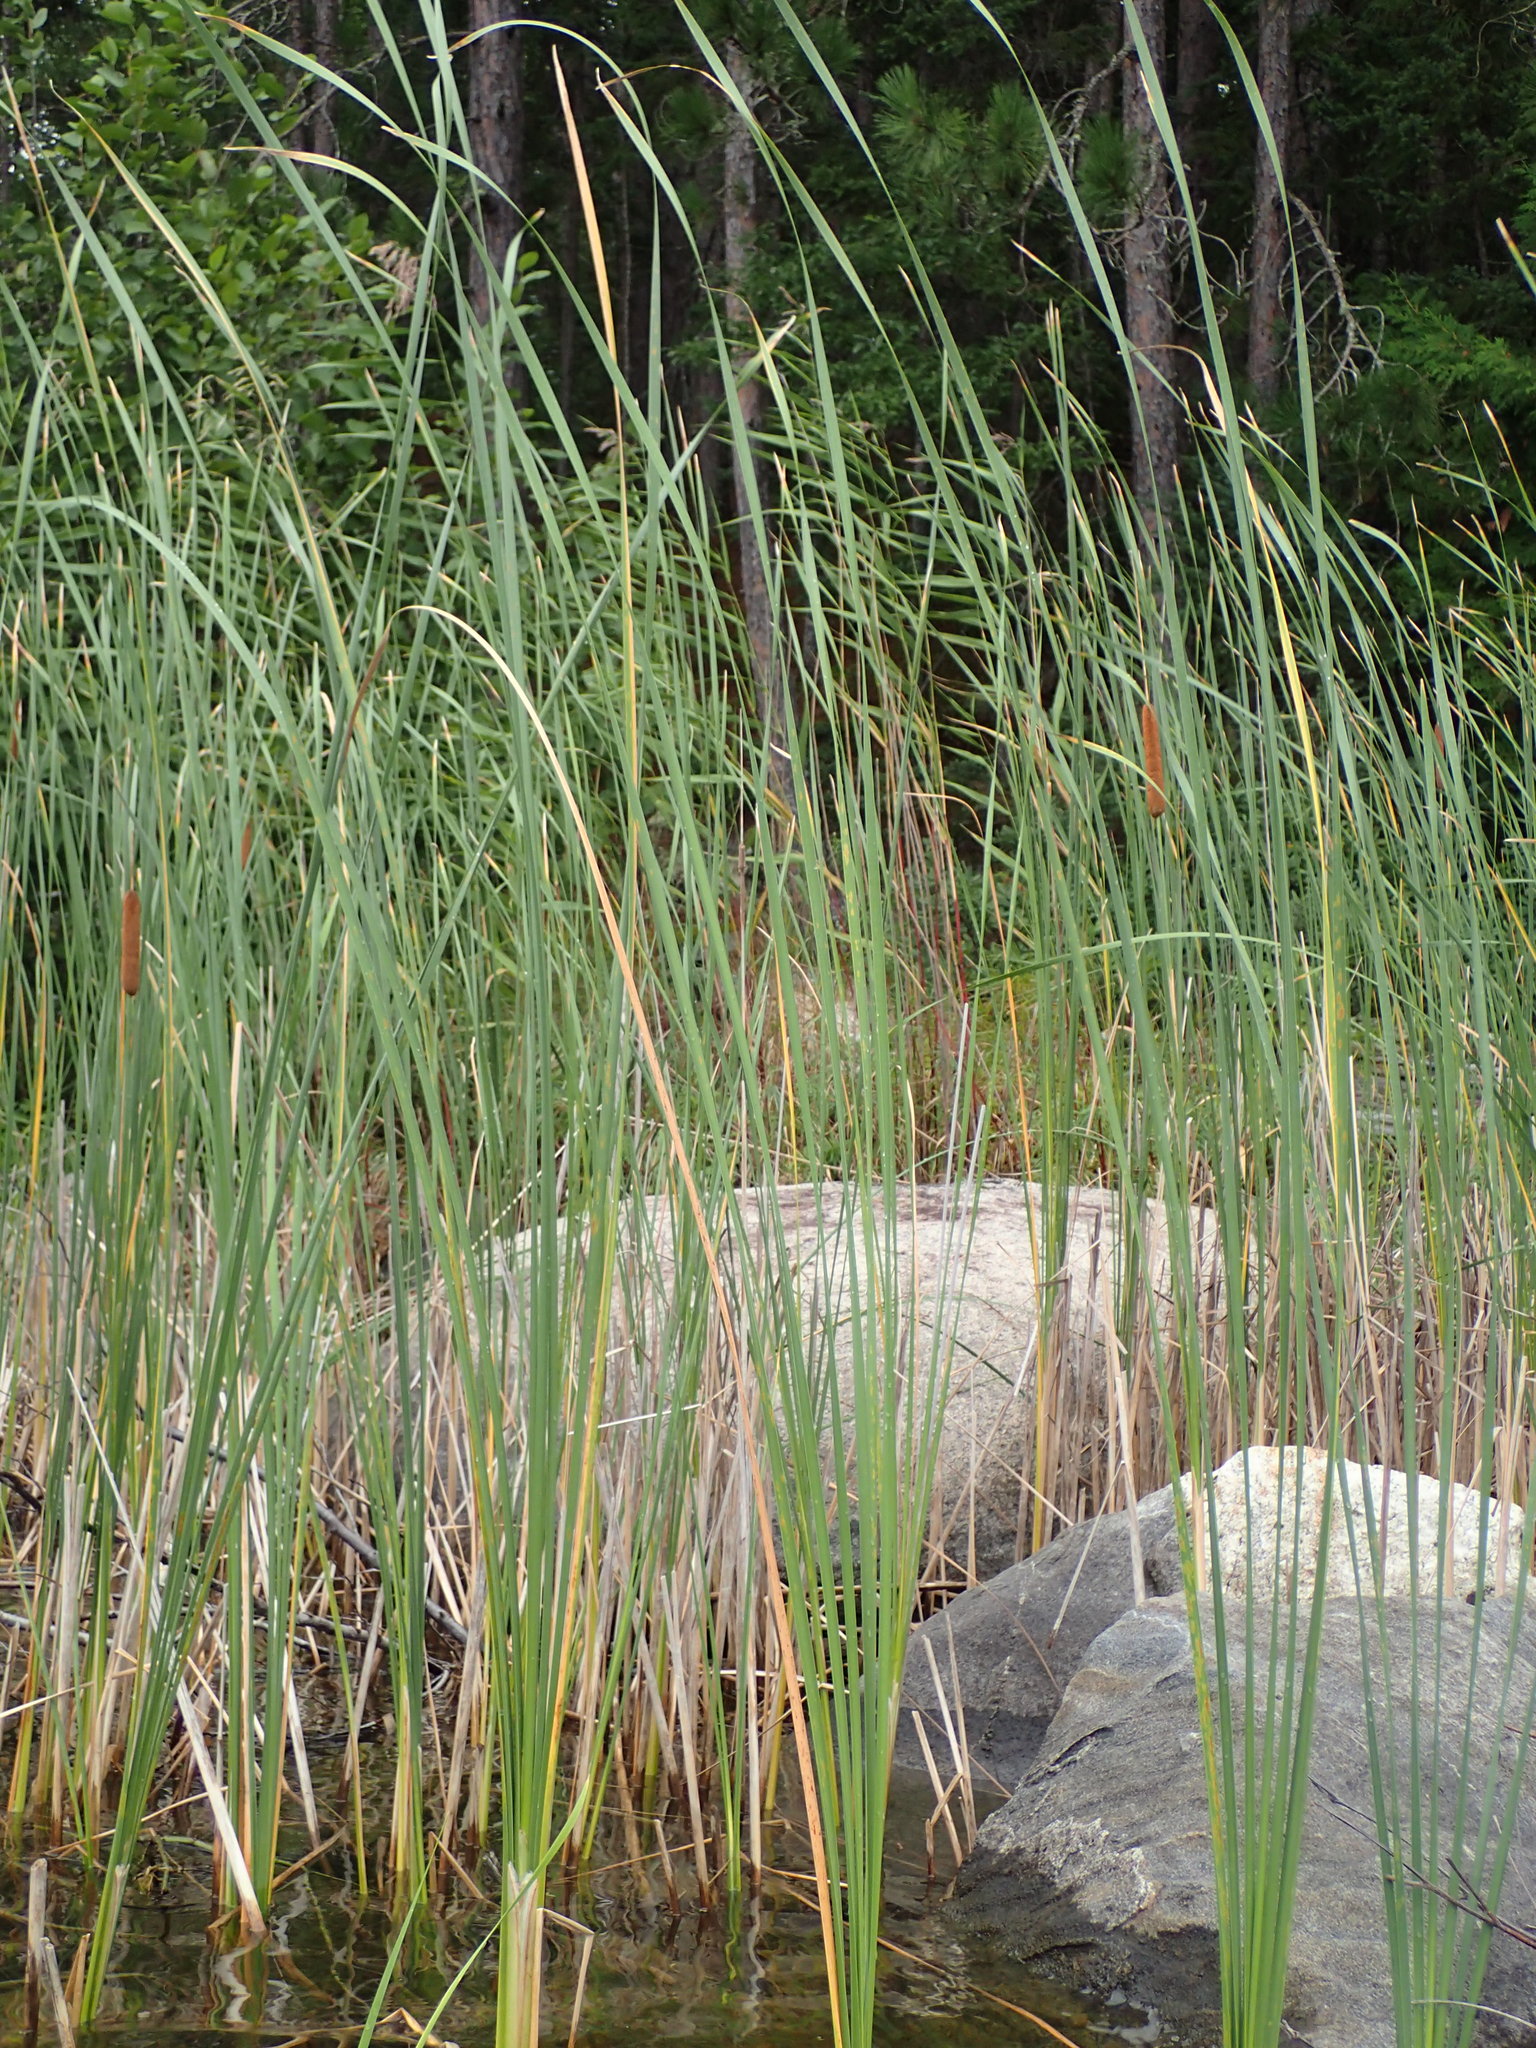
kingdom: Plantae
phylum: Tracheophyta
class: Liliopsida
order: Poales
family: Typhaceae
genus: Typha
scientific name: Typha angustifolia
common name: Lesser bulrush
